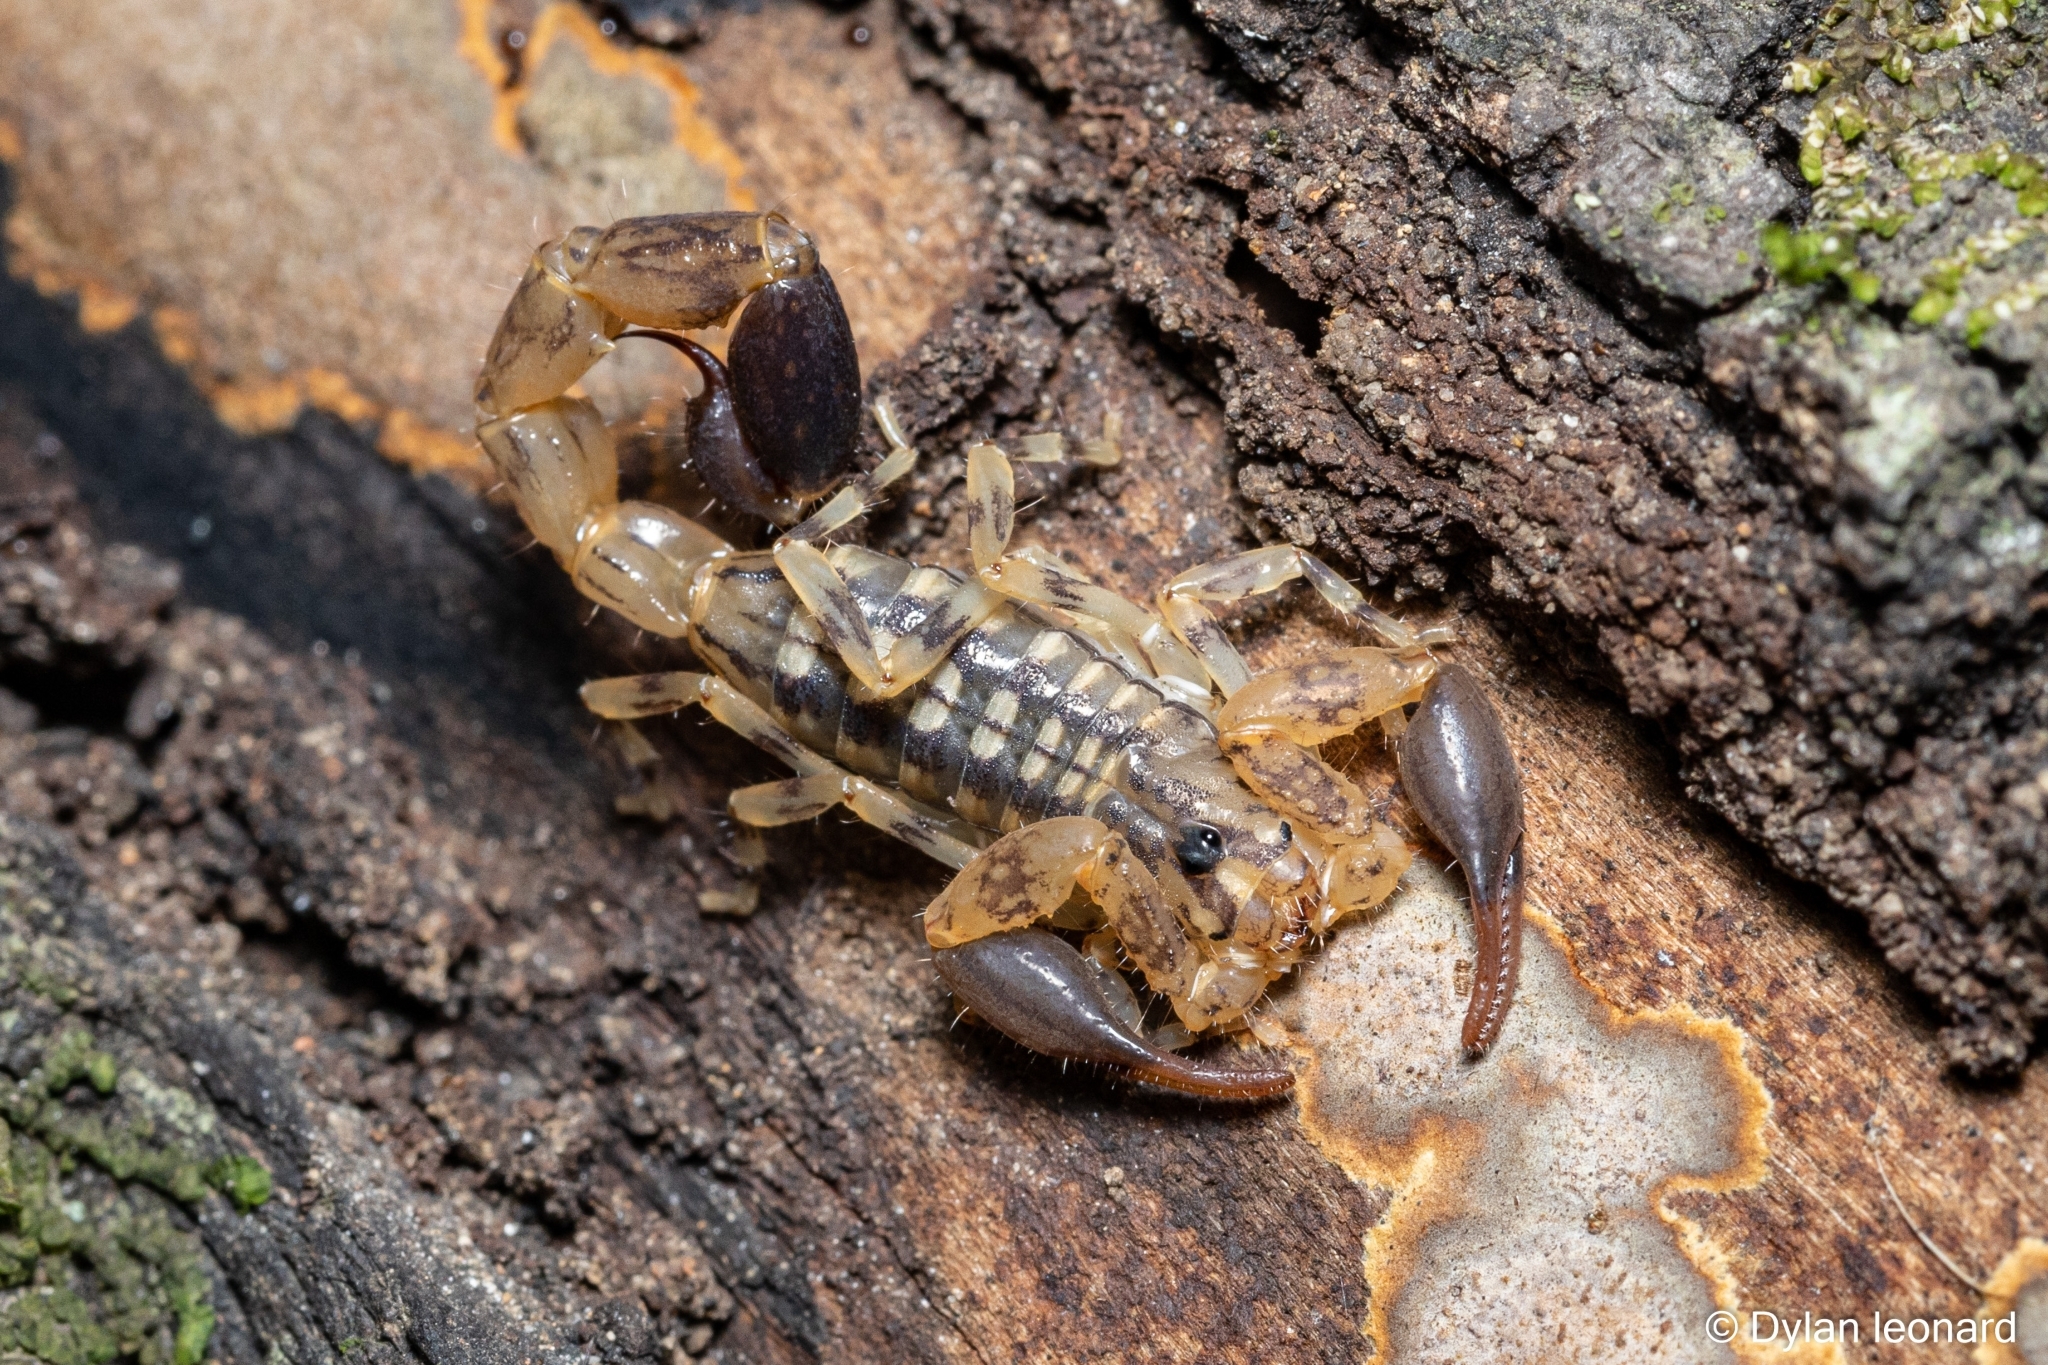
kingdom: Animalia
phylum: Arthropoda
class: Arachnida
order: Scorpiones
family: Buthidae
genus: Uroplectes
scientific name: Uroplectes formosus
